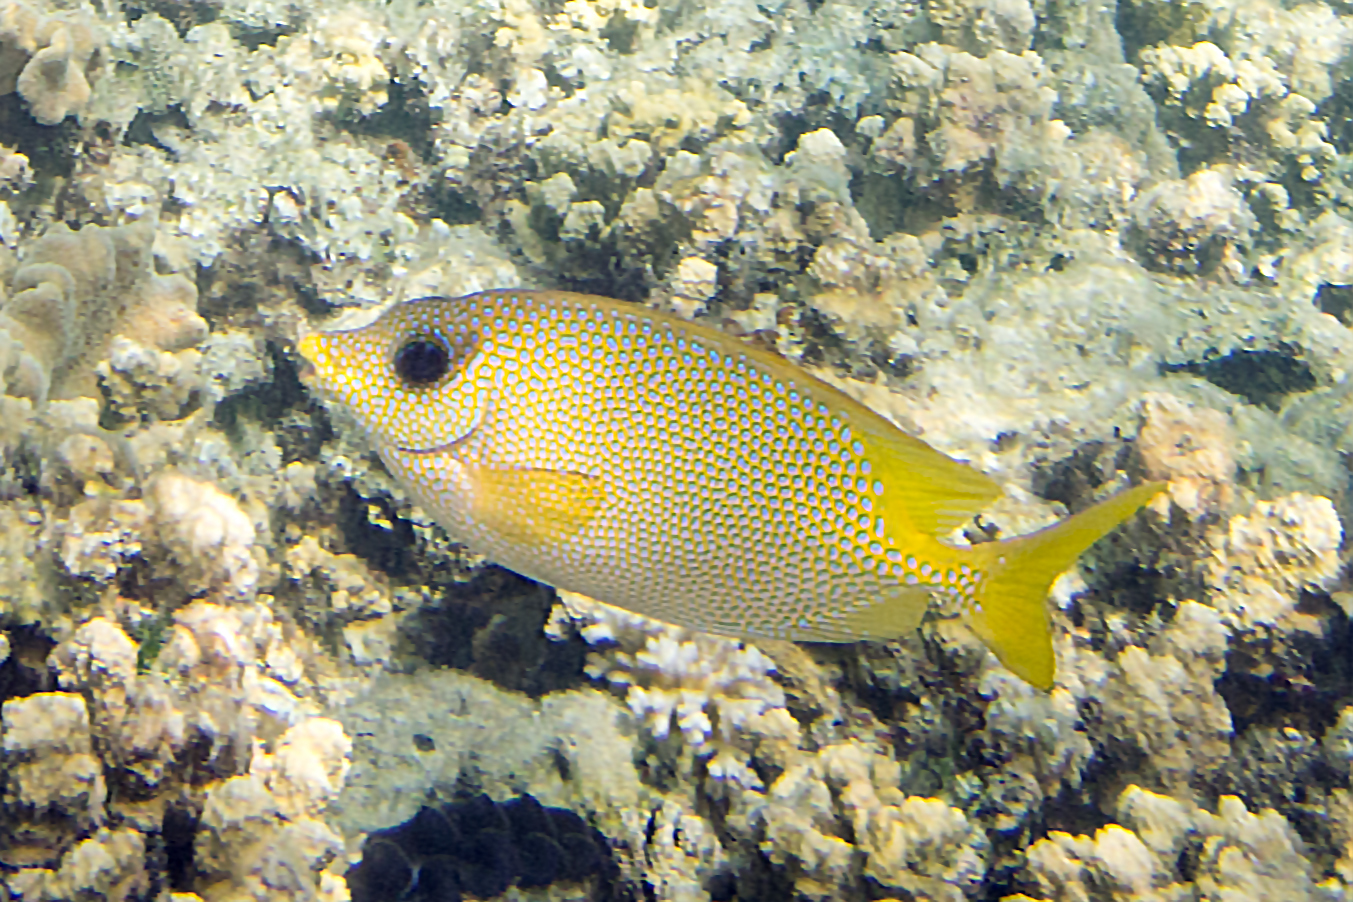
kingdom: Animalia
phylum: Chordata
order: Perciformes
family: Siganidae
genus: Siganus
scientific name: Siganus corallinus
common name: Coral rabbitfish
